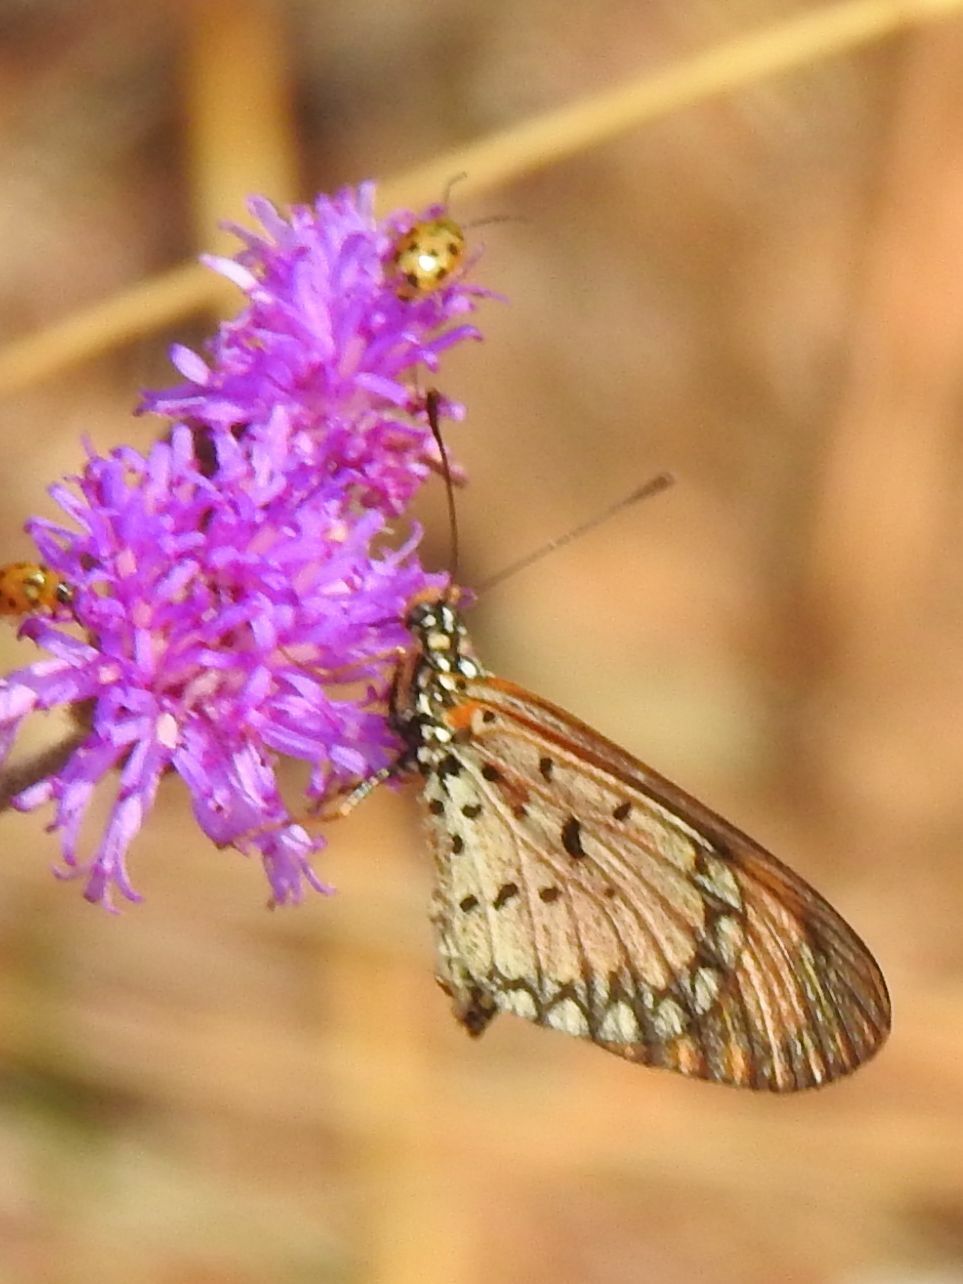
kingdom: Animalia
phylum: Arthropoda
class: Insecta
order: Lepidoptera
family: Nymphalidae
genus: Acraea
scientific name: Acraea Telchinia serena
